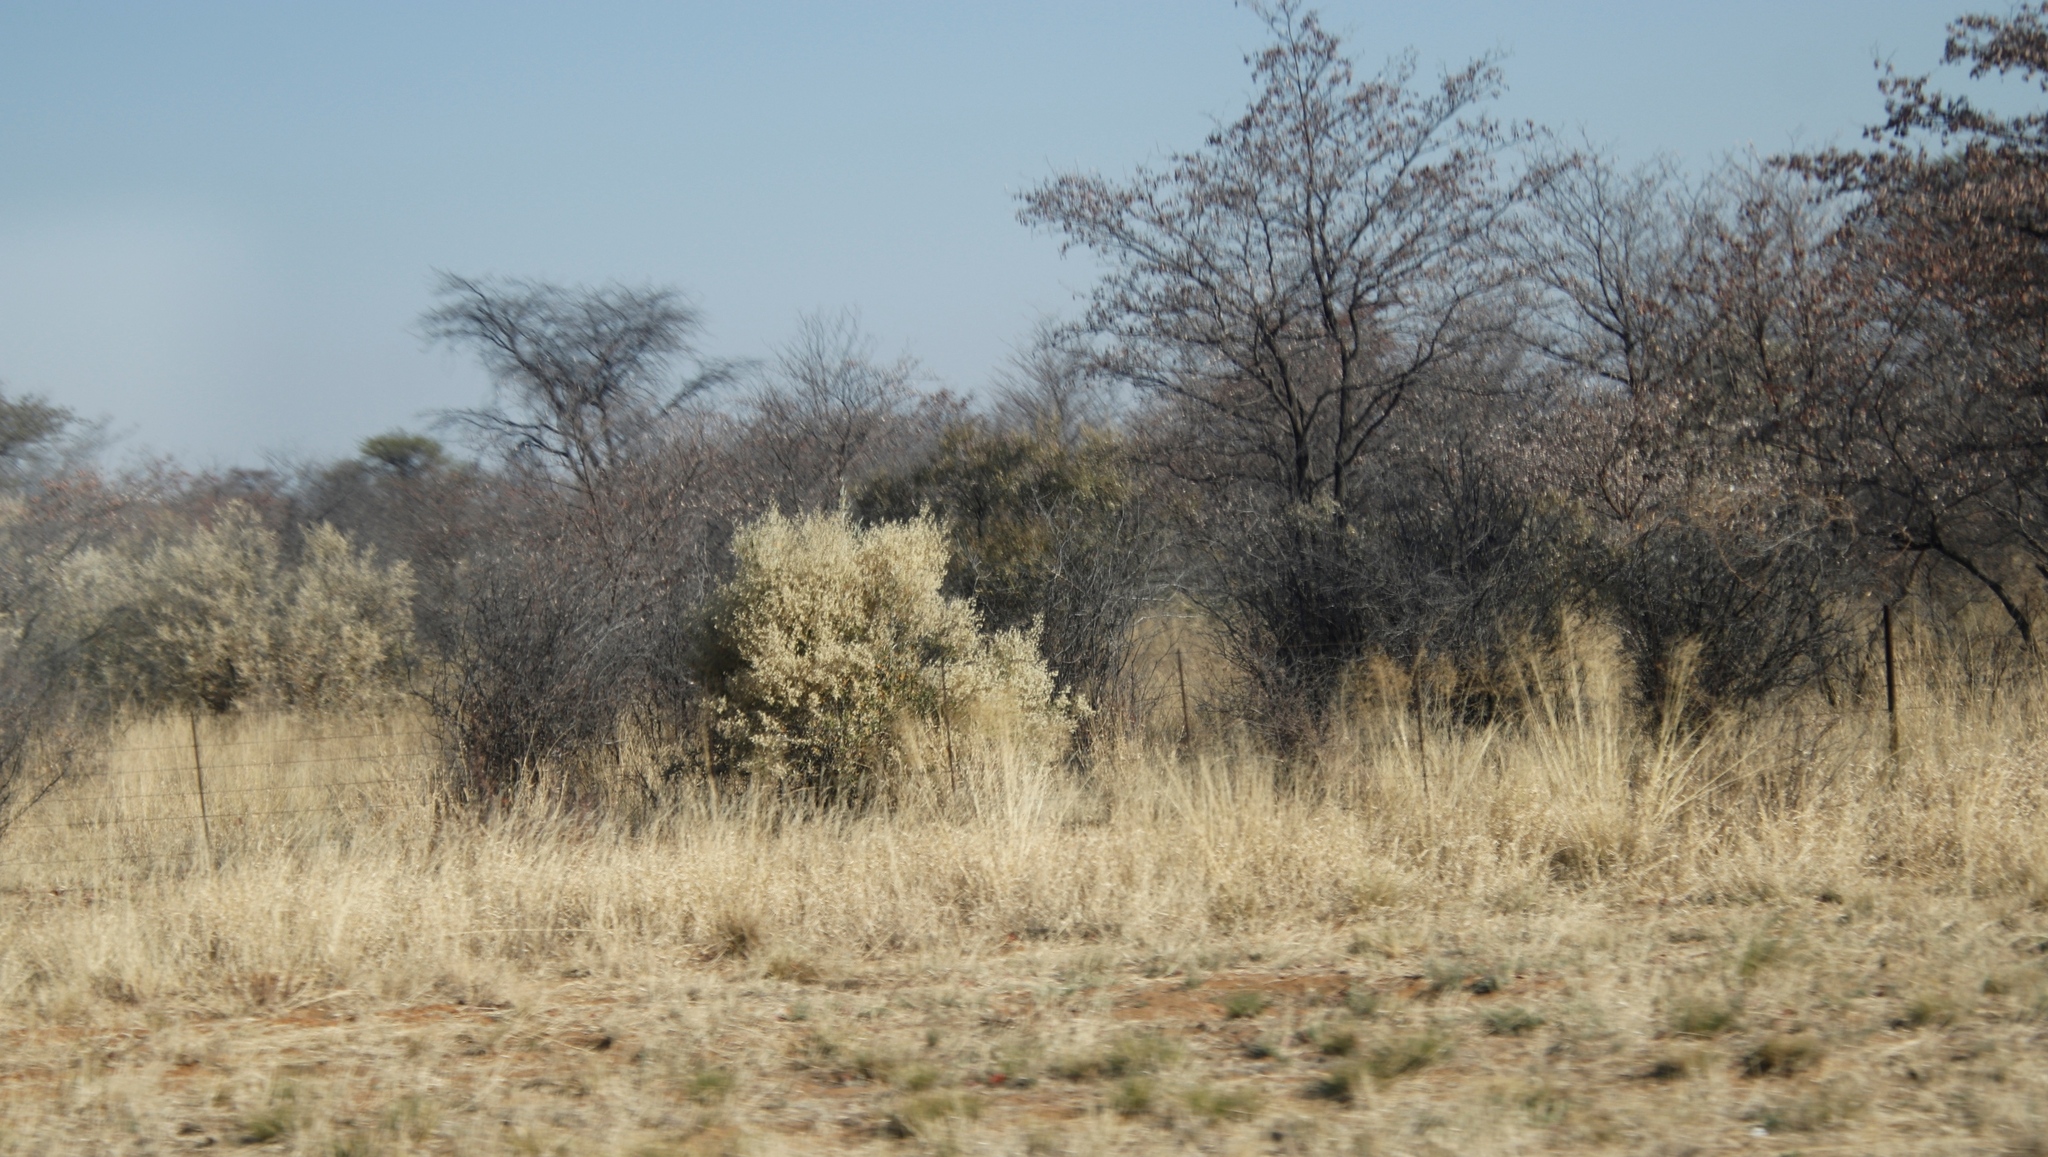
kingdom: Plantae
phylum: Tracheophyta
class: Magnoliopsida
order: Fabales
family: Fabaceae
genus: Senegalia
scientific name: Senegalia mellifera
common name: Hookthorn
